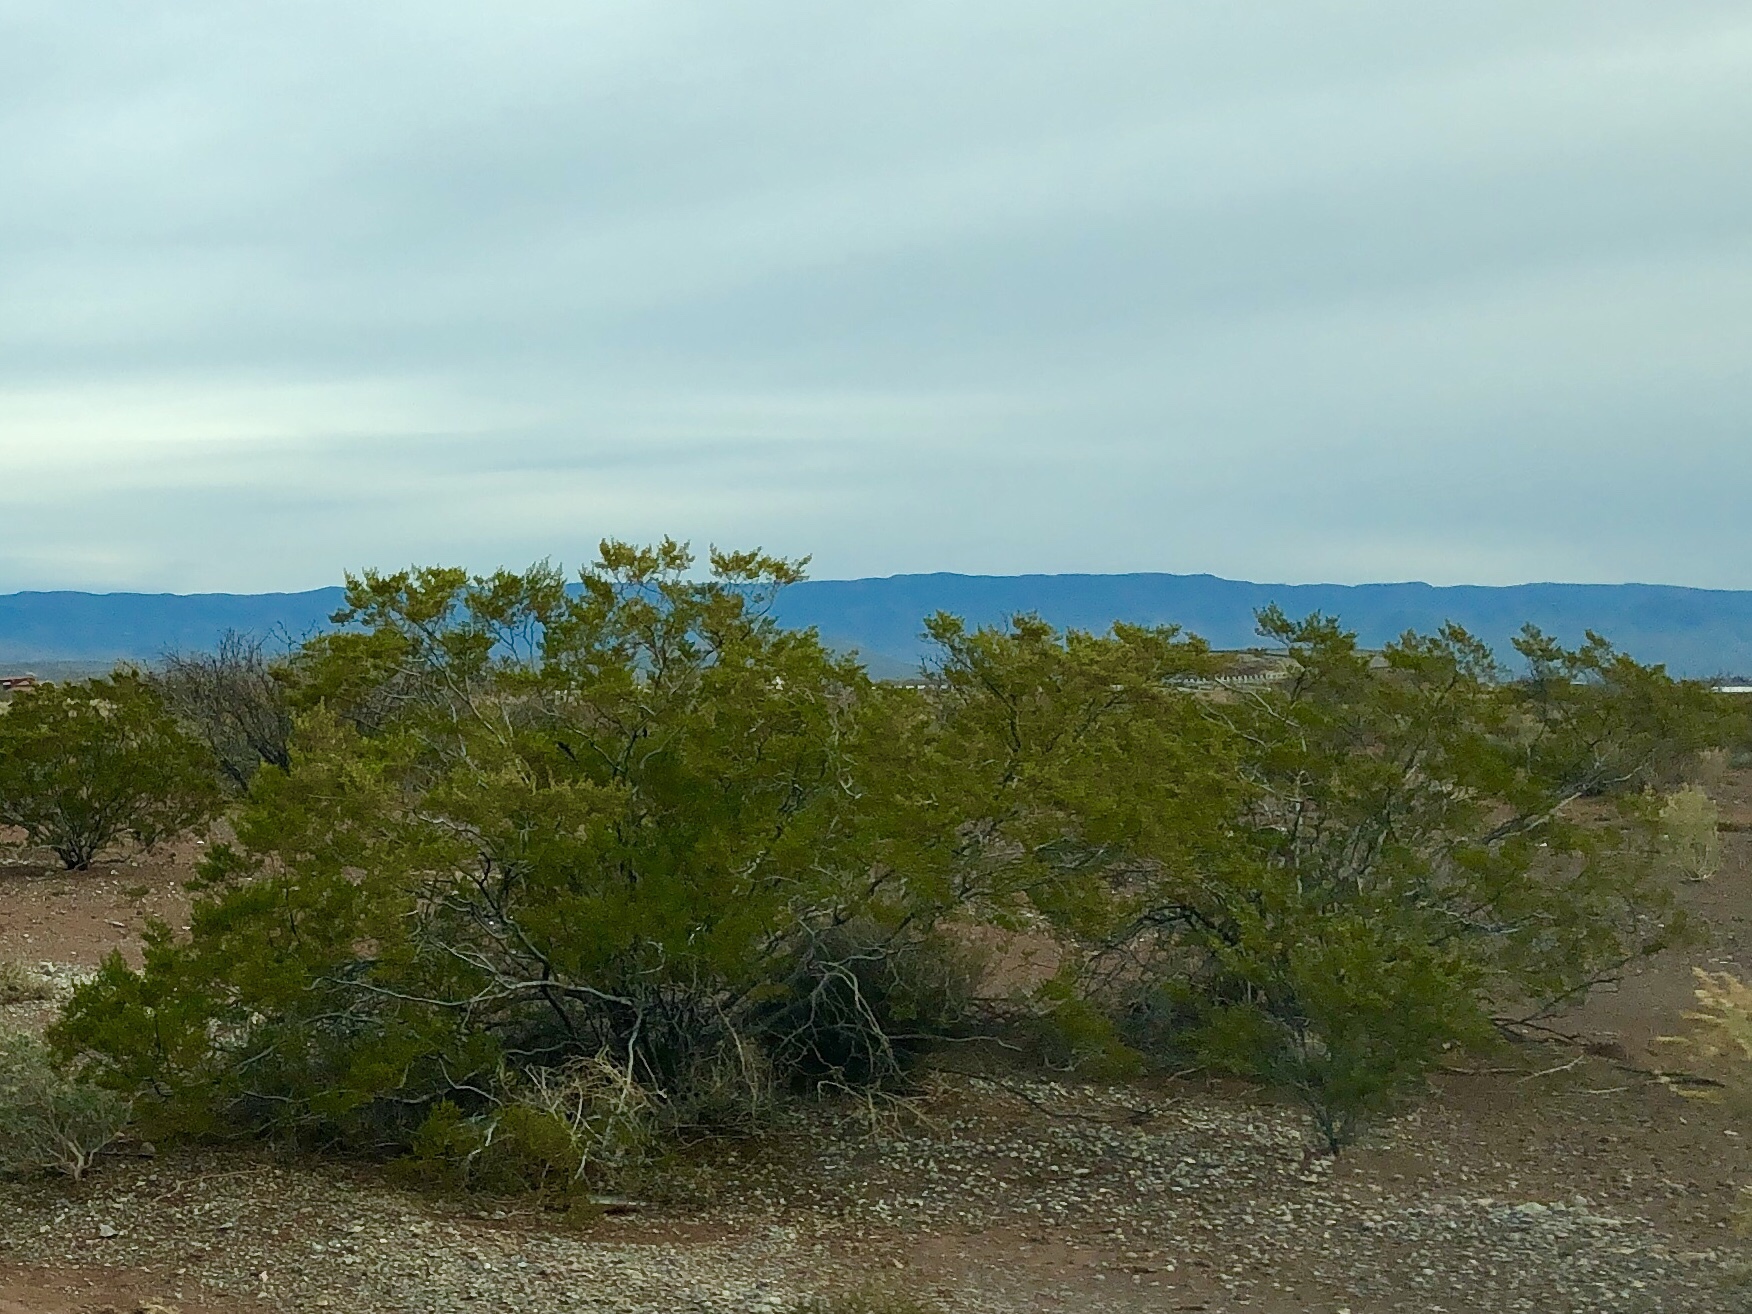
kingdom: Plantae
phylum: Tracheophyta
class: Magnoliopsida
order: Zygophyllales
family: Zygophyllaceae
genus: Larrea
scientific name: Larrea tridentata
